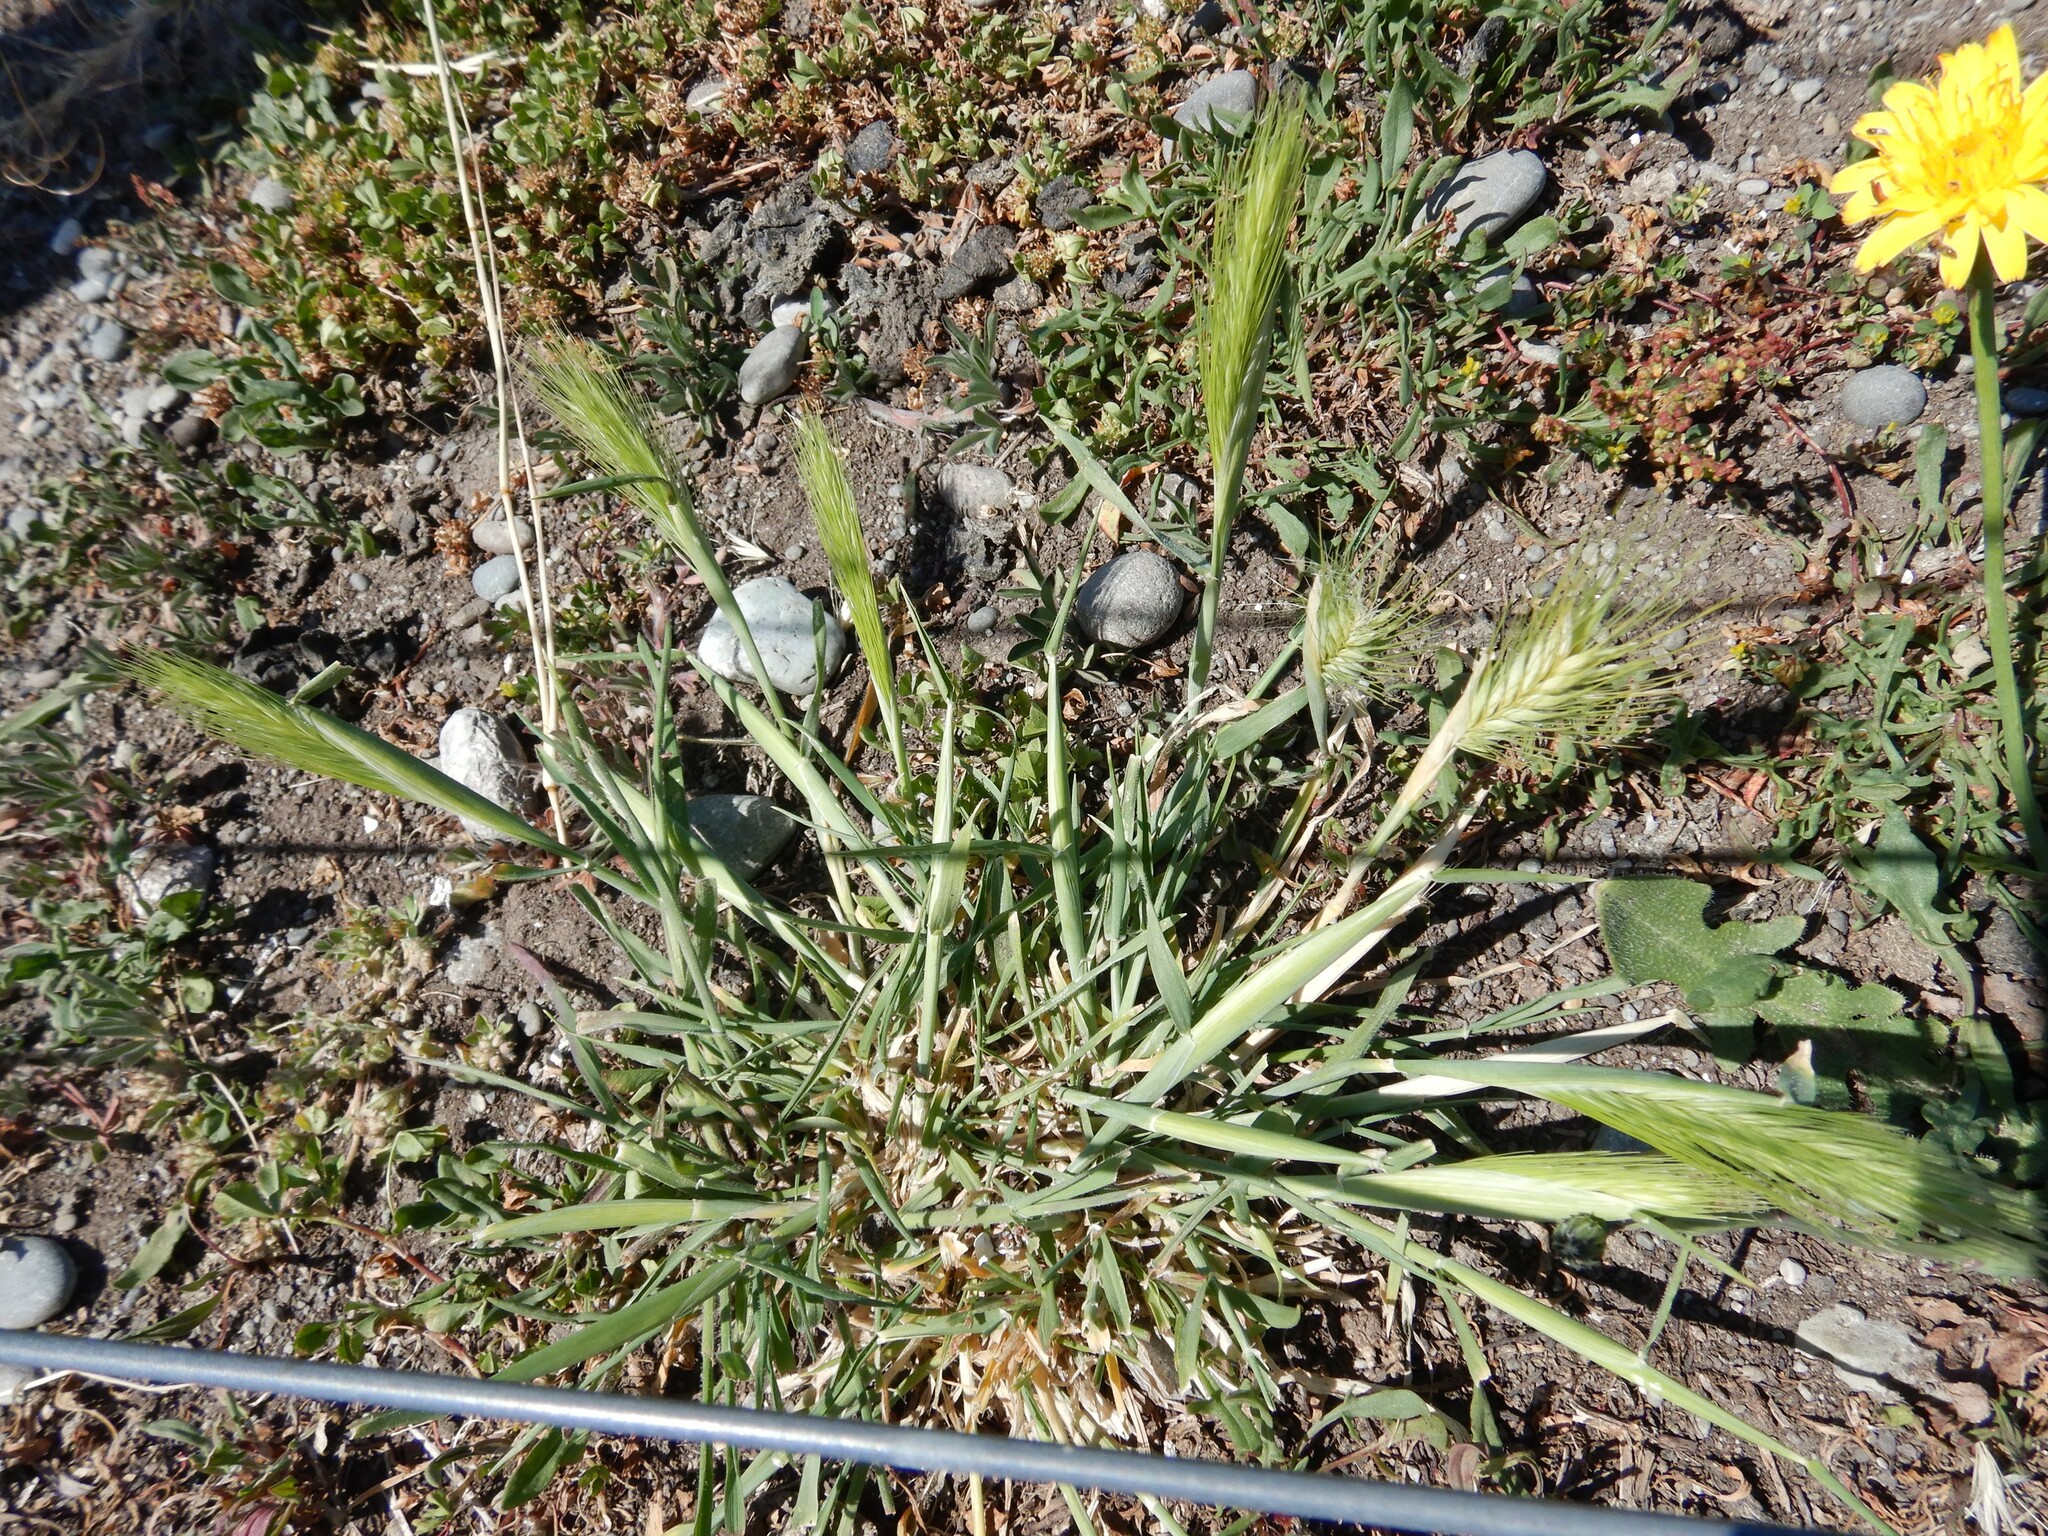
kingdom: Plantae
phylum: Tracheophyta
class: Liliopsida
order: Poales
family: Poaceae
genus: Hordeum
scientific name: Hordeum murinum
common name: Wall barley
